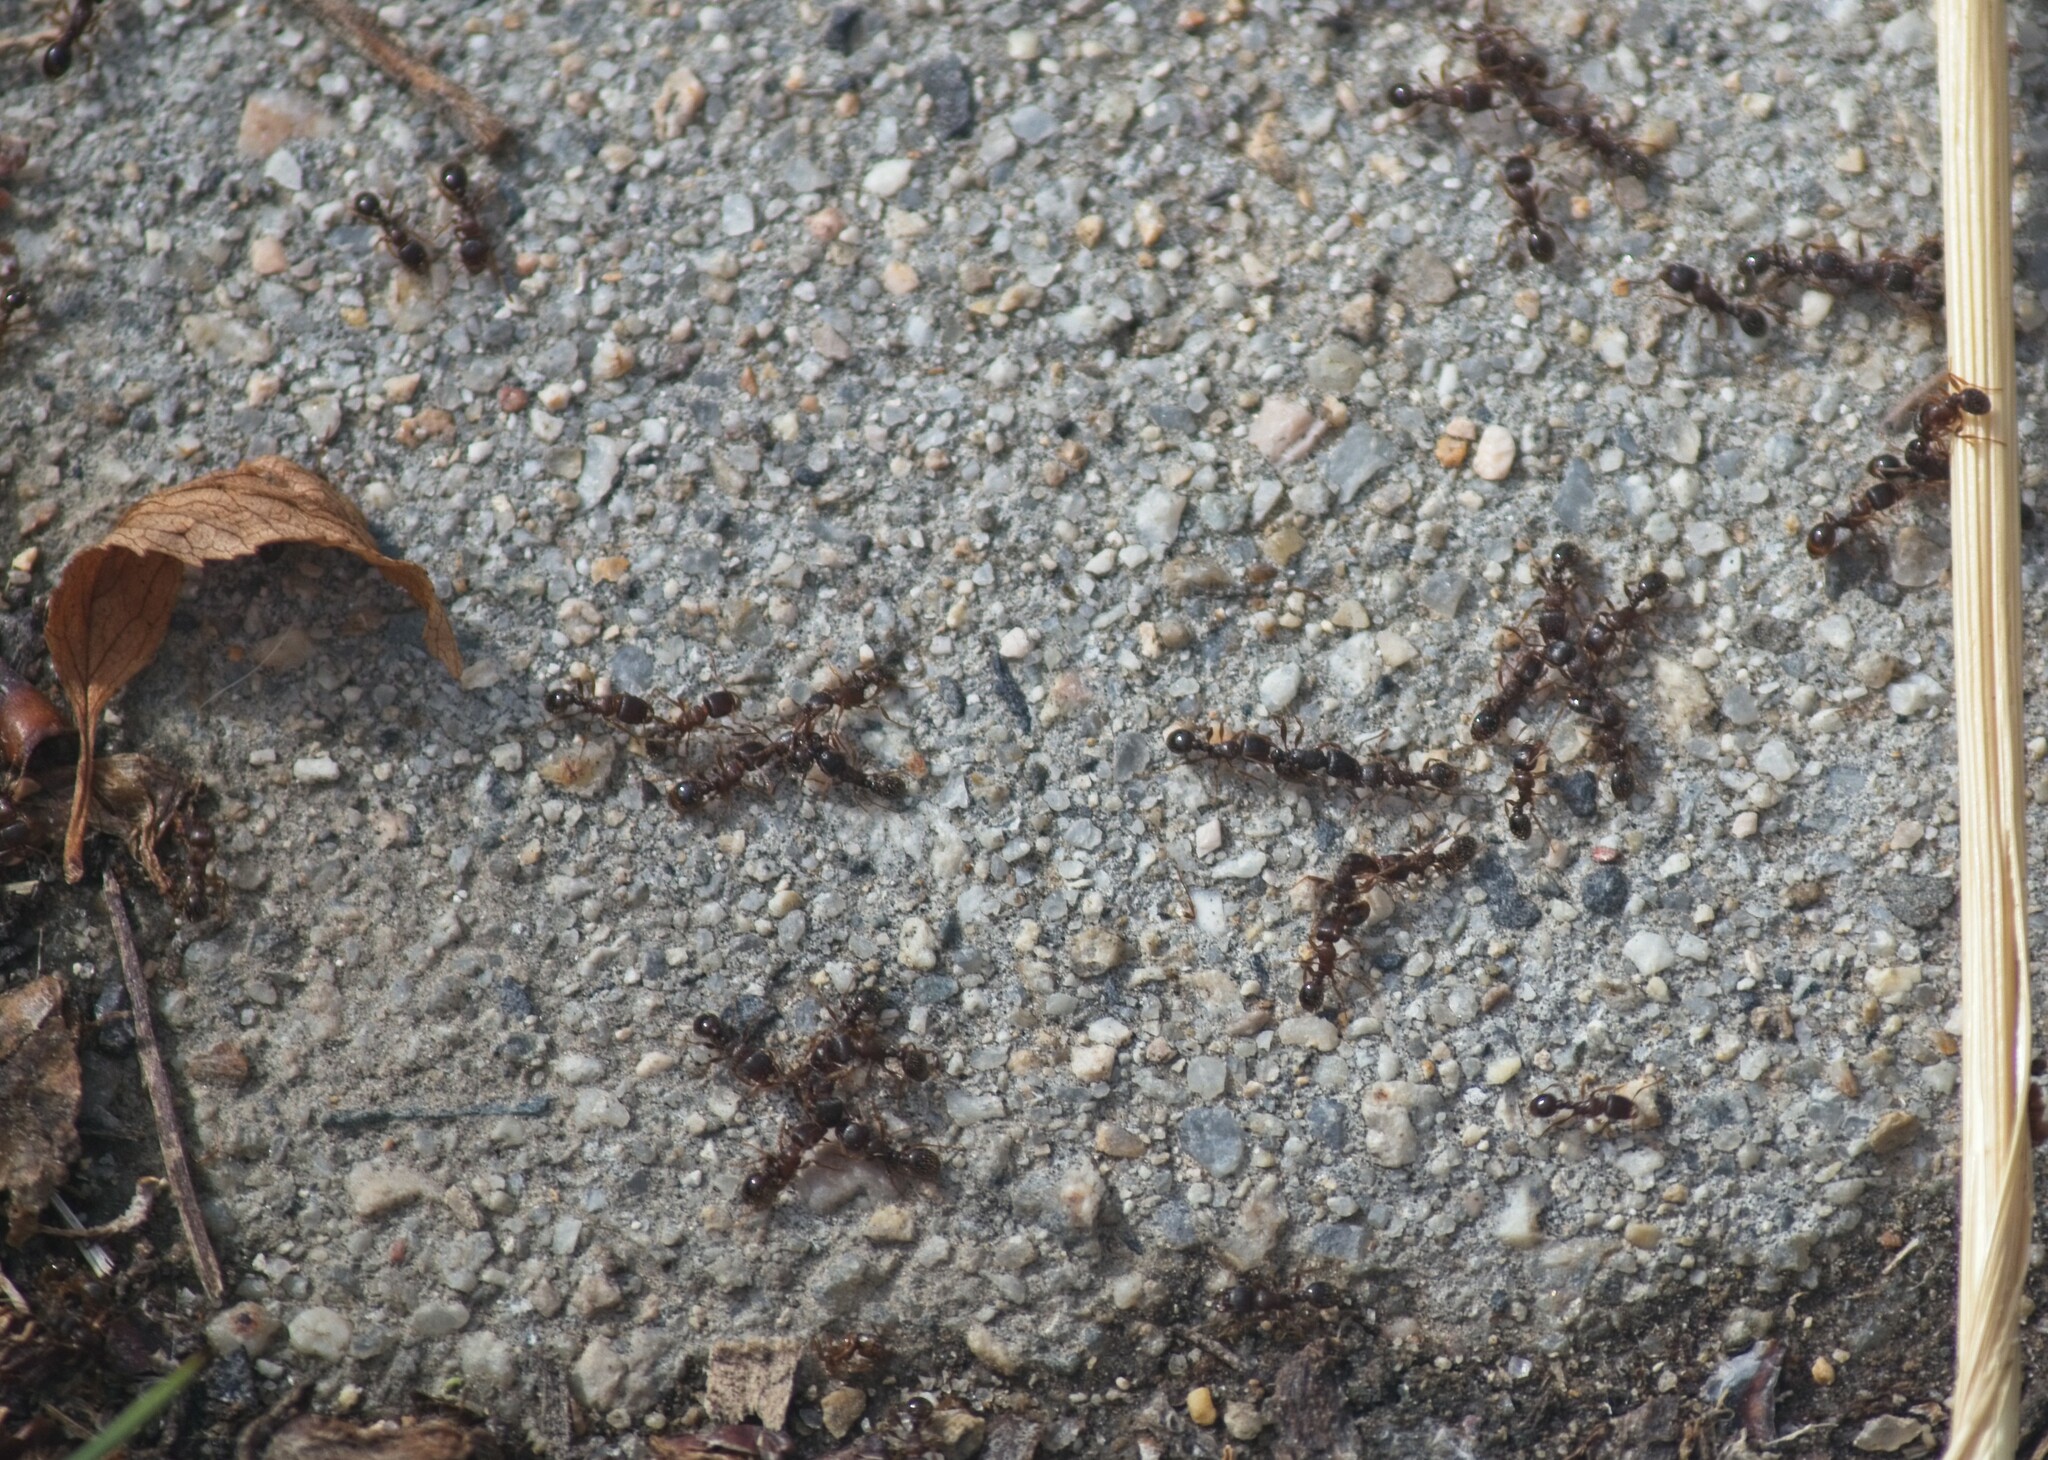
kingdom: Animalia
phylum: Arthropoda
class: Insecta
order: Hymenoptera
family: Formicidae
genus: Tetramorium
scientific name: Tetramorium immigrans
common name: Pavement ant
